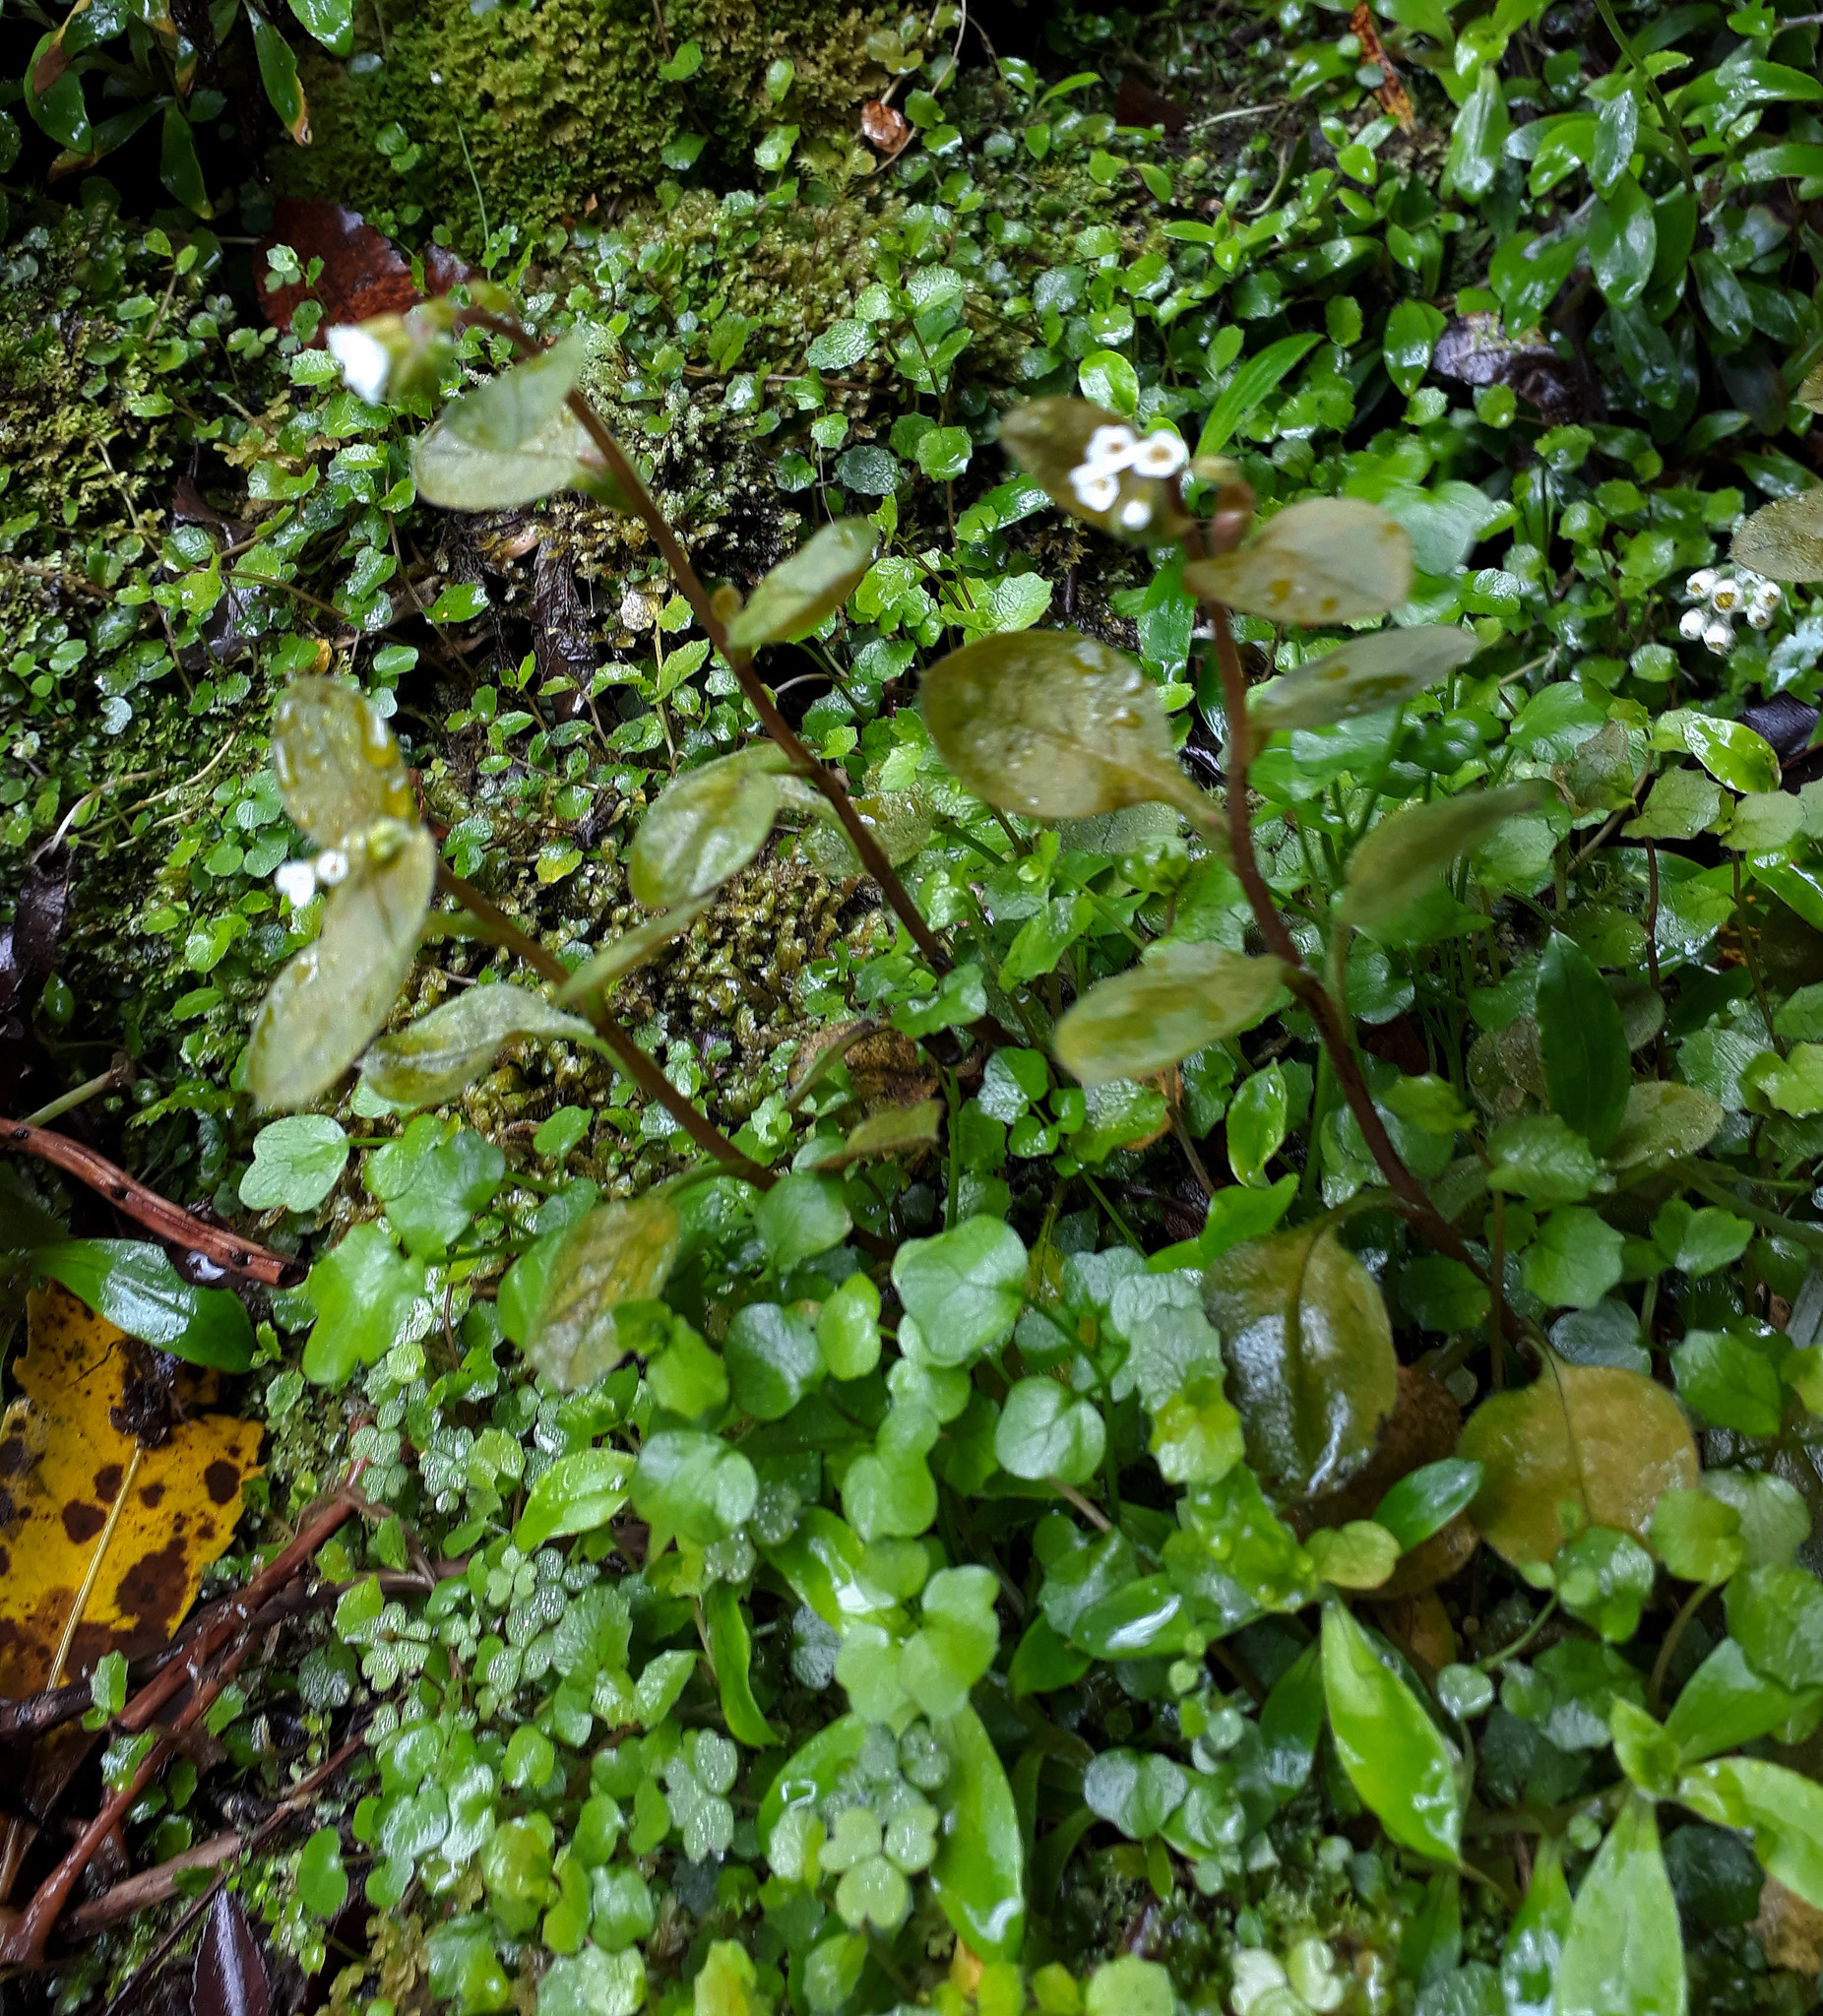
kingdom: Plantae
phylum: Tracheophyta
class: Magnoliopsida
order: Boraginales
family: Boraginaceae
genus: Myosotis
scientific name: Myosotis forsteri
